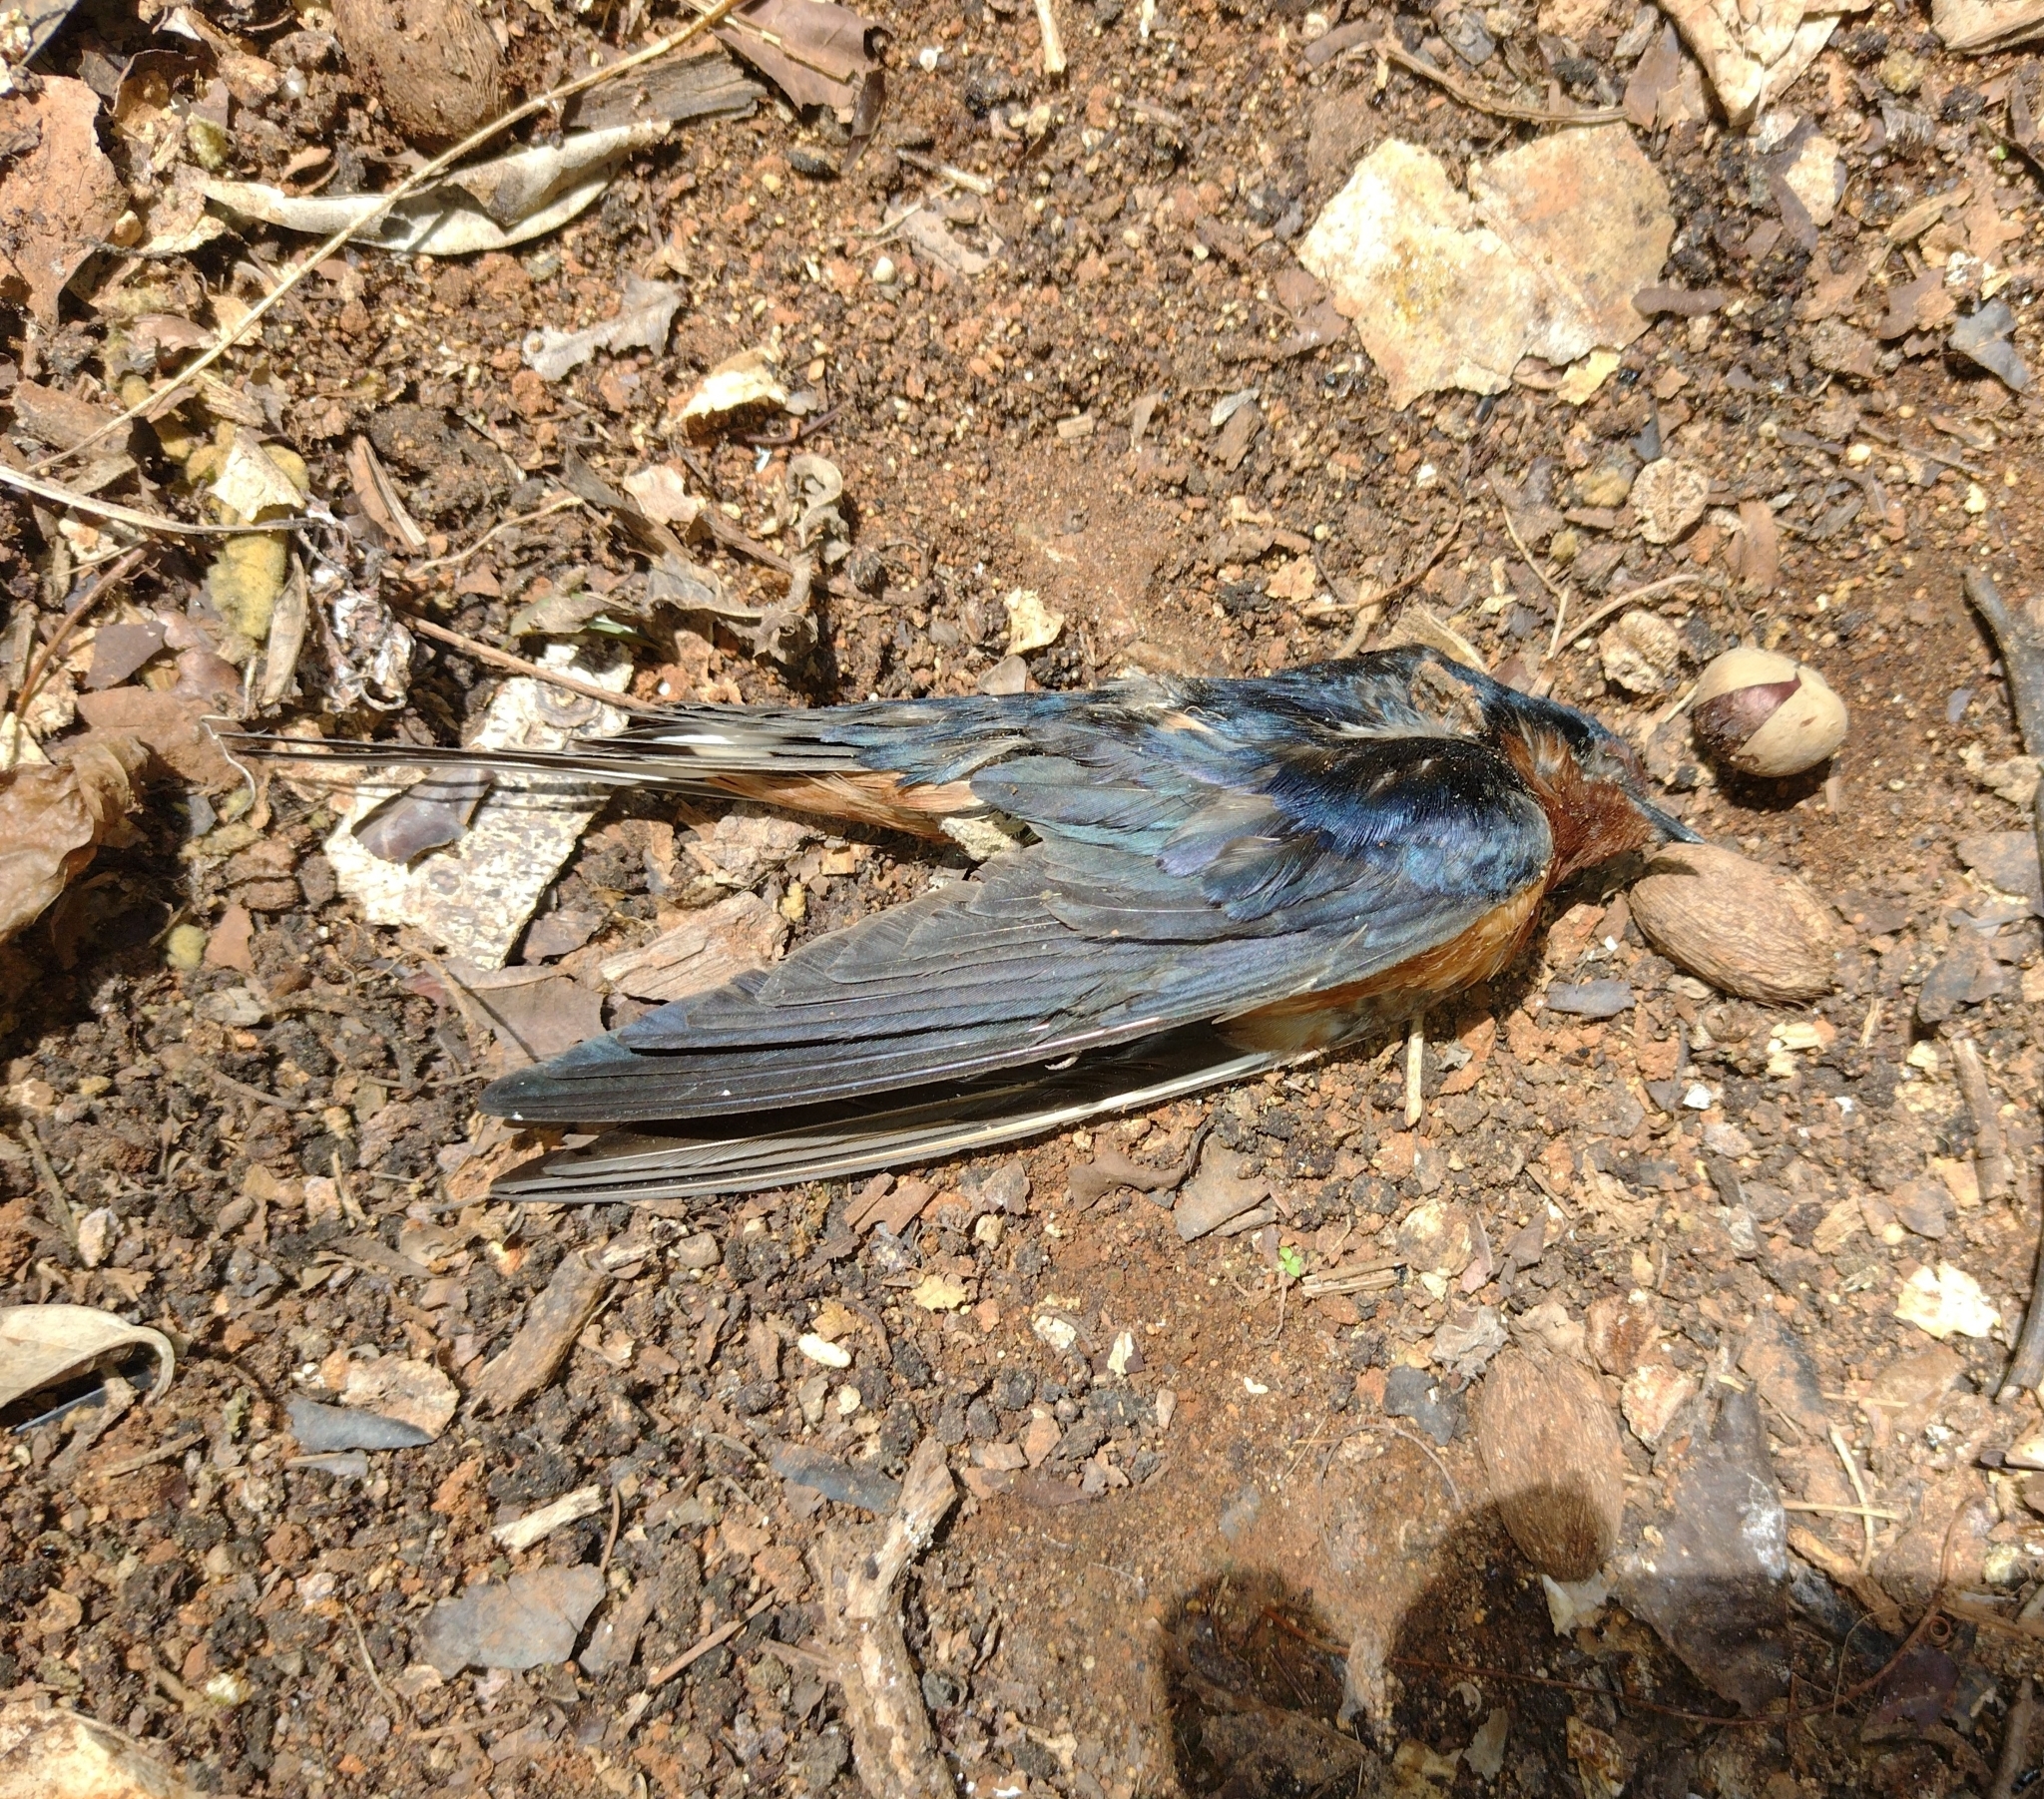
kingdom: Animalia
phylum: Chordata
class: Aves
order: Passeriformes
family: Hirundinidae
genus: Petrochelidon
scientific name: Petrochelidon fulva
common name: Cave swallow
